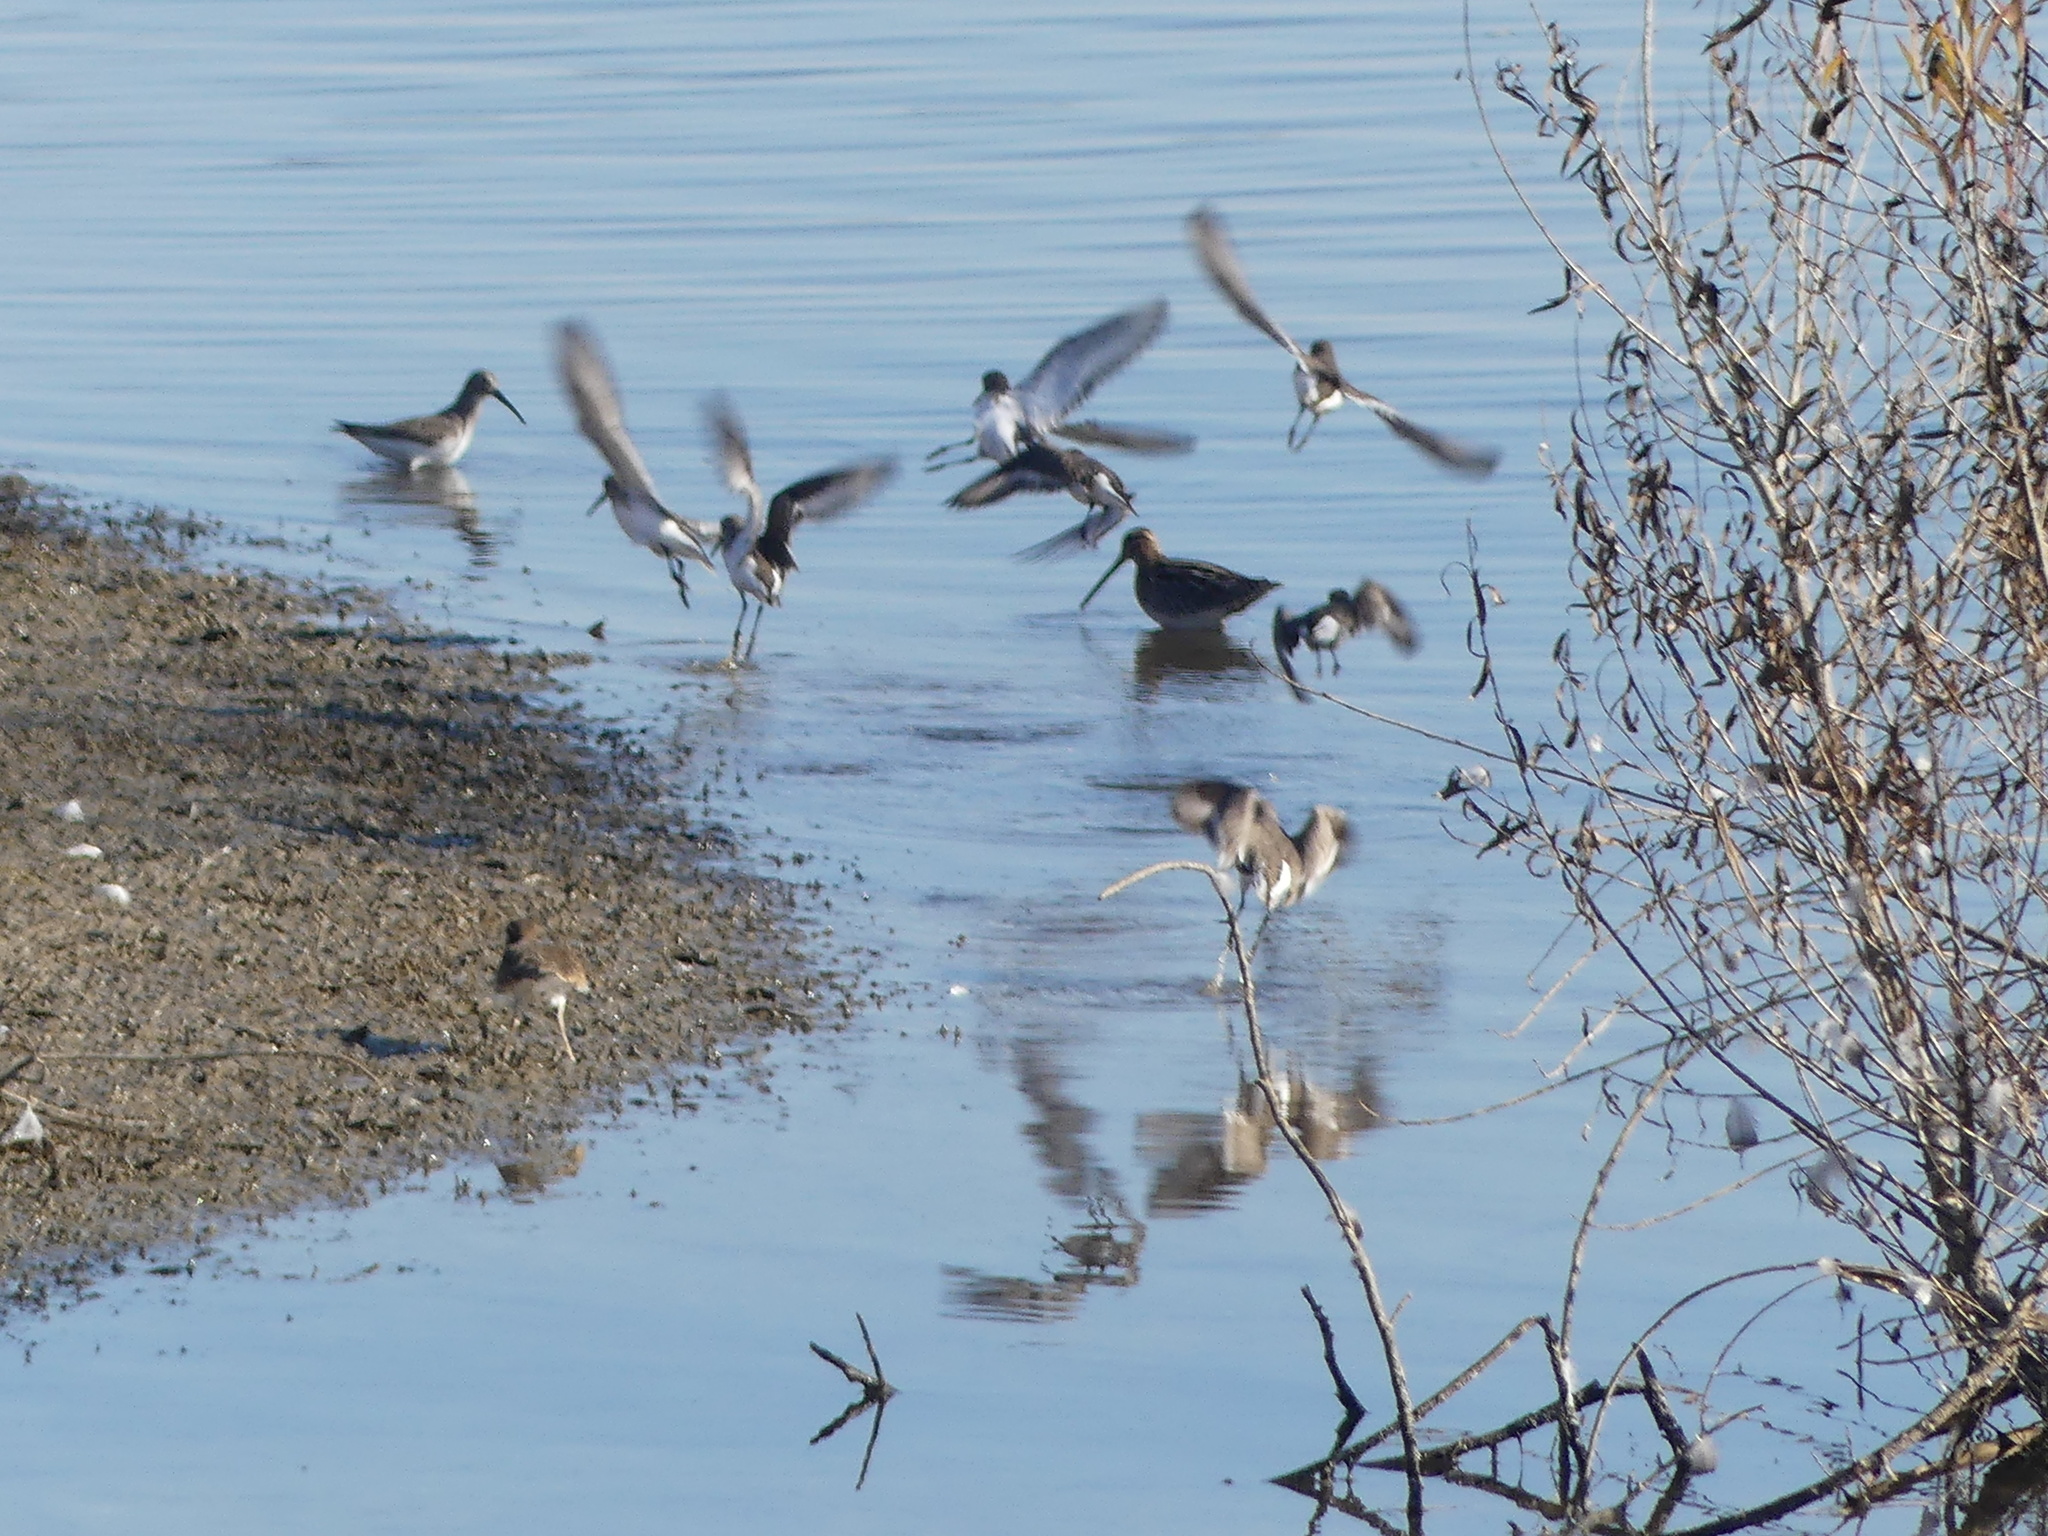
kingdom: Animalia
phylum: Chordata
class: Aves
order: Charadriiformes
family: Scolopacidae
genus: Gallinago
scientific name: Gallinago delicata
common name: Wilson's snipe
